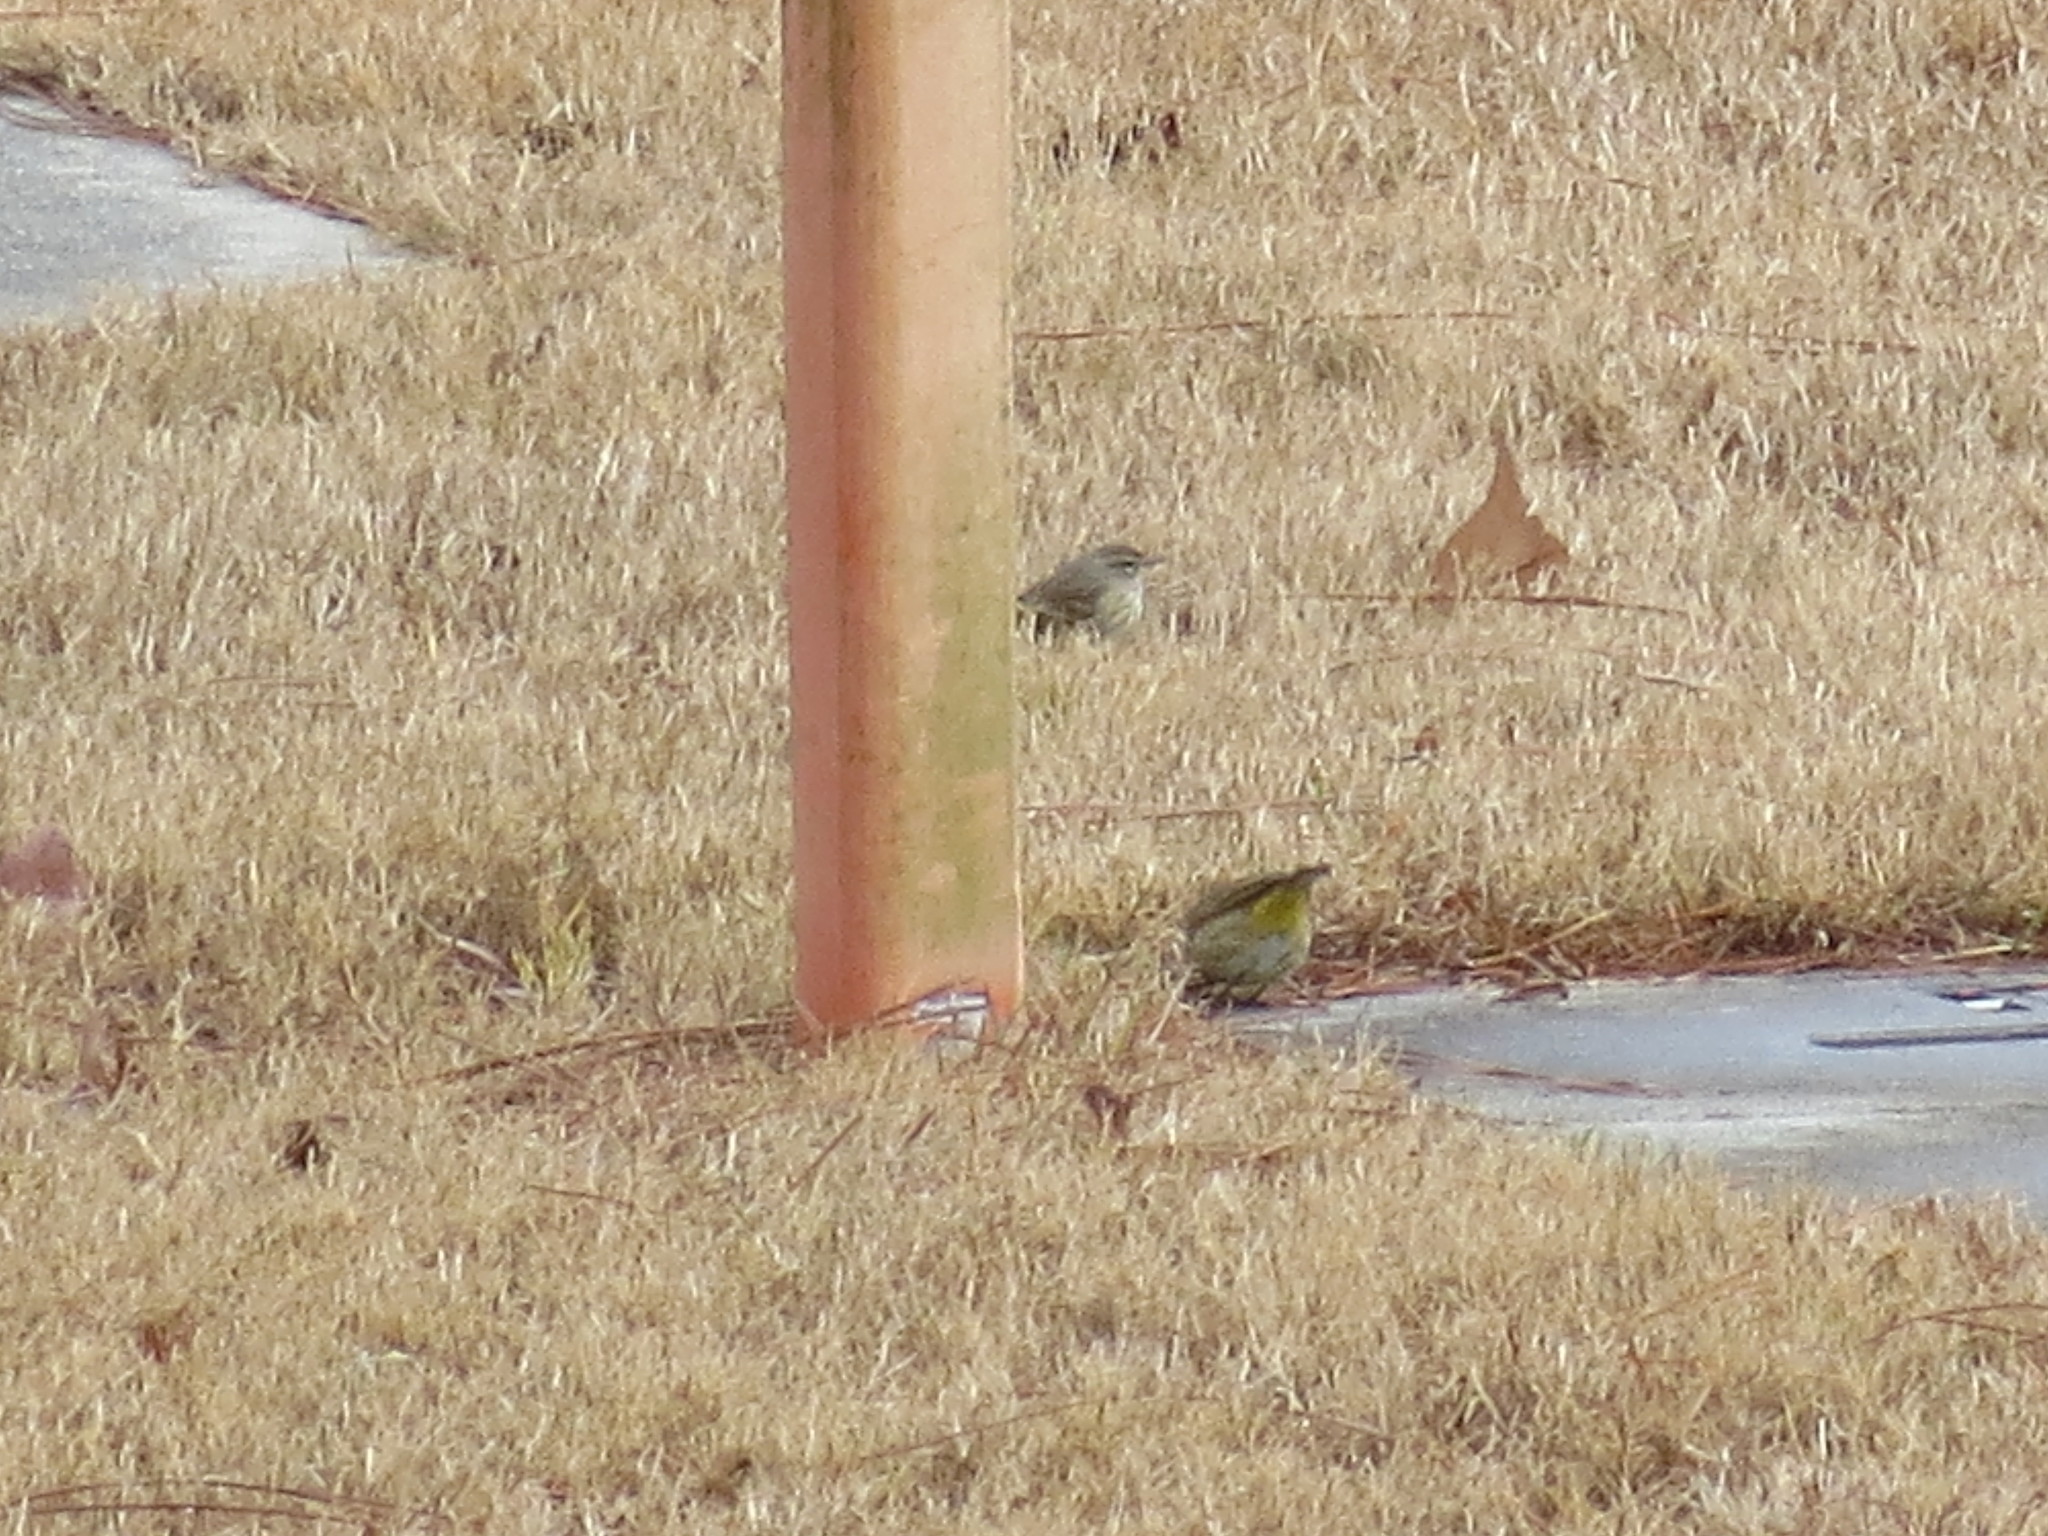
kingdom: Animalia
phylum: Chordata
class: Aves
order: Passeriformes
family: Parulidae
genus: Setophaga
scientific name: Setophaga palmarum
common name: Palm warbler
